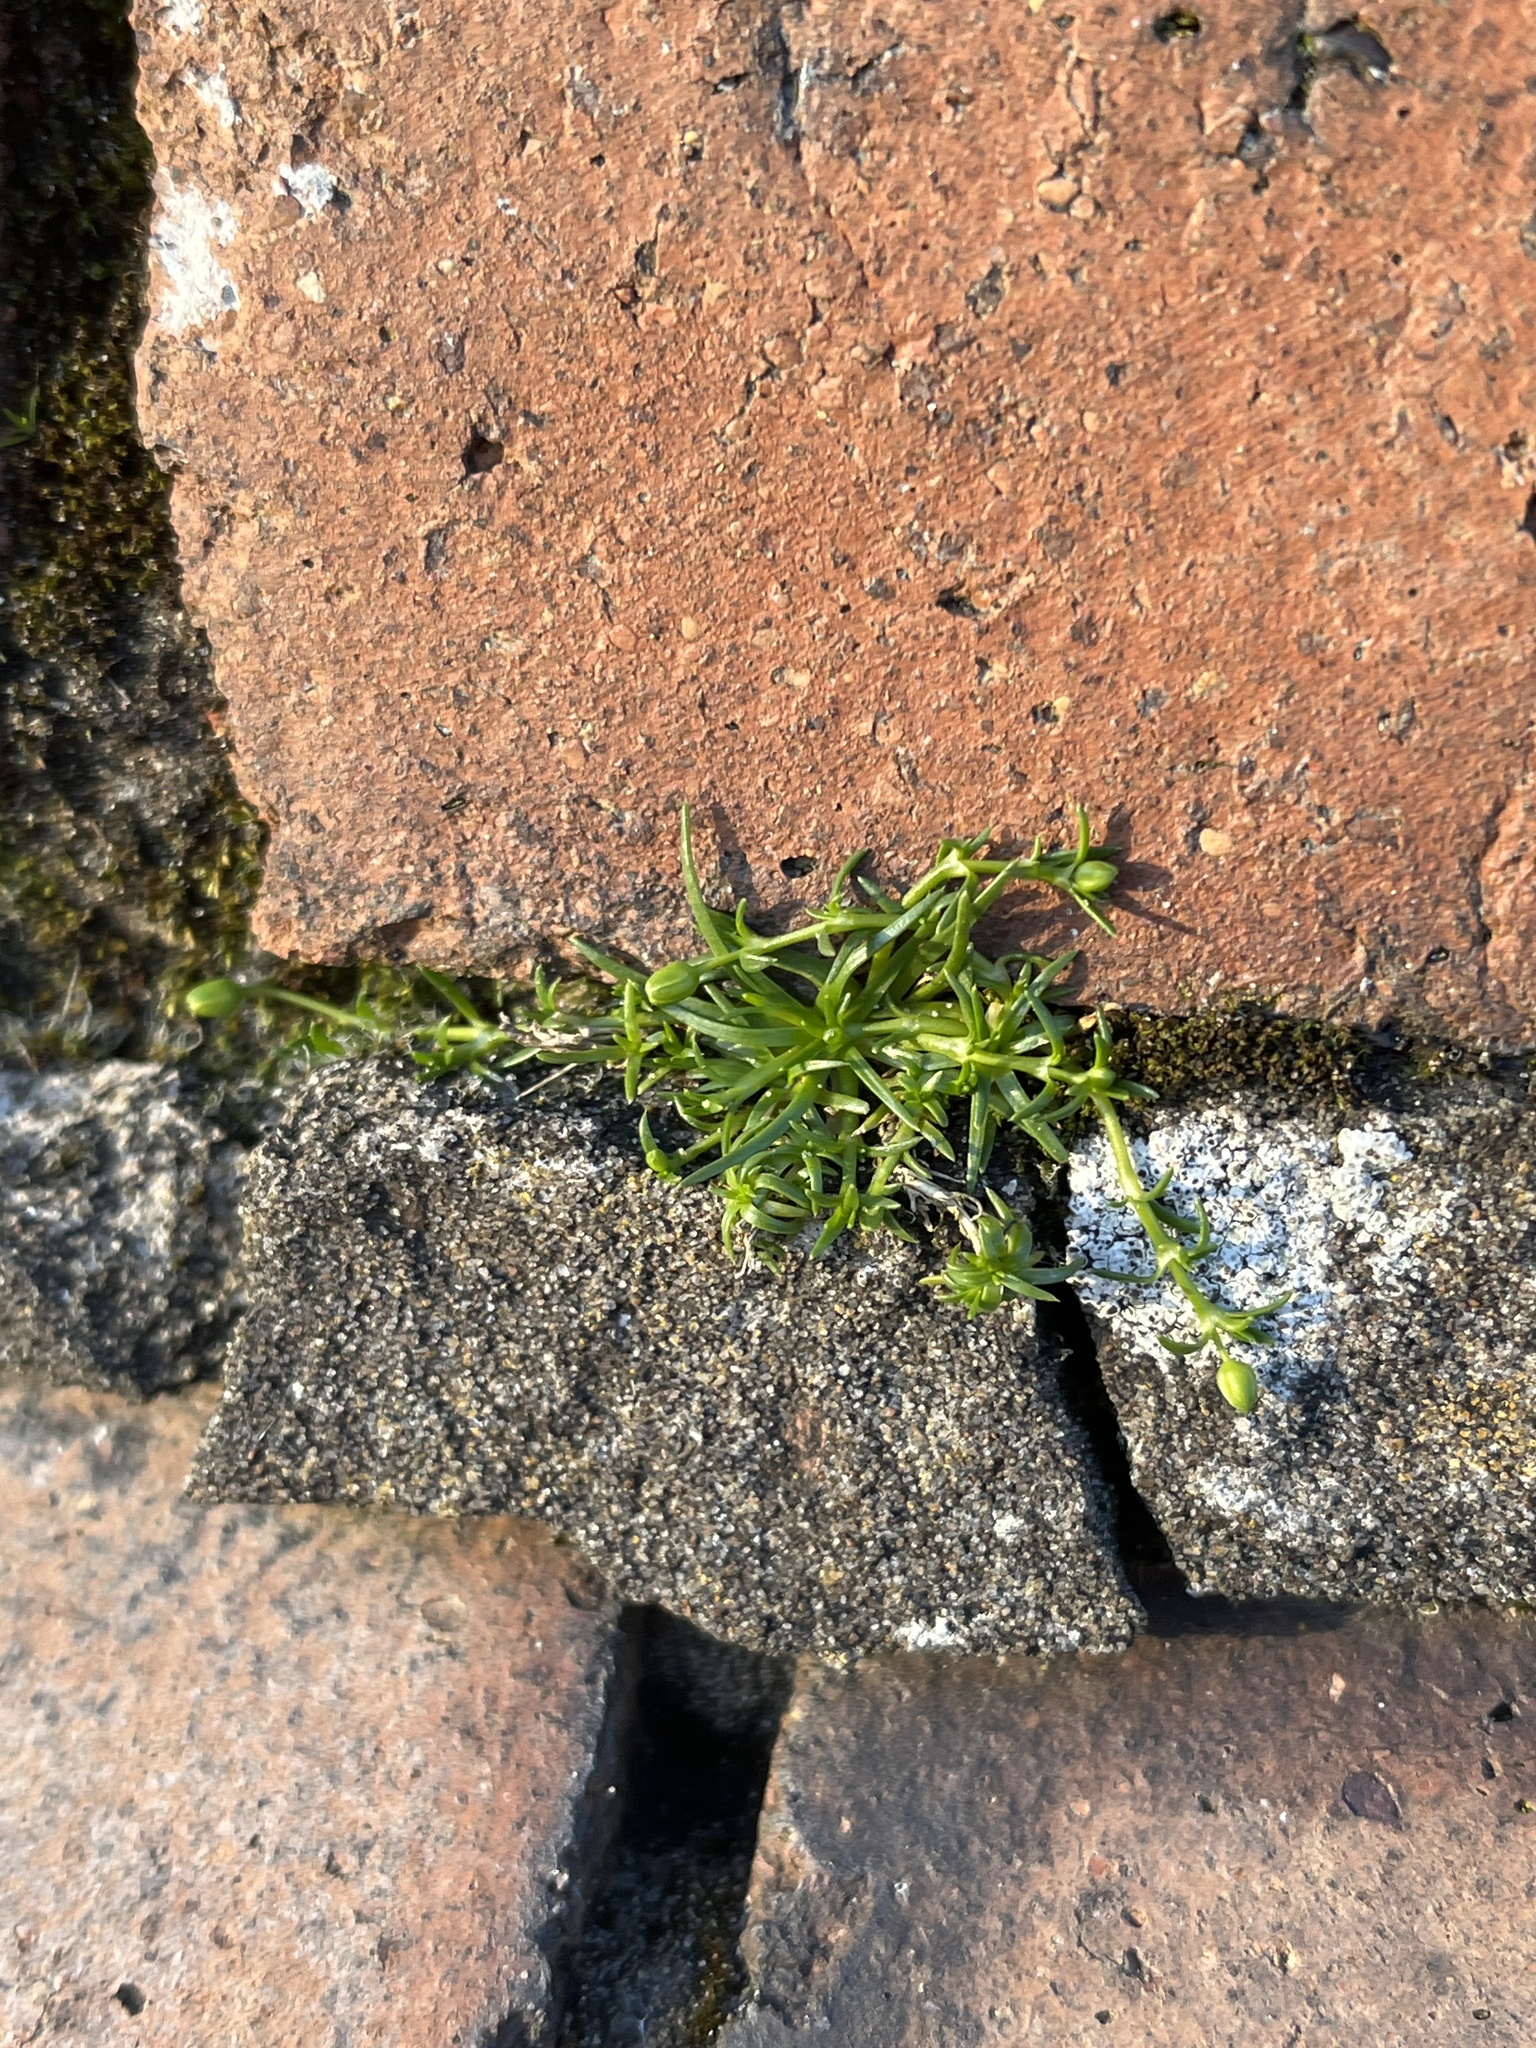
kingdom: Plantae
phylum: Tracheophyta
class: Magnoliopsida
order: Caryophyllales
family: Caryophyllaceae
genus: Sagina
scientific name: Sagina procumbens
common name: Procumbent pearlwort
